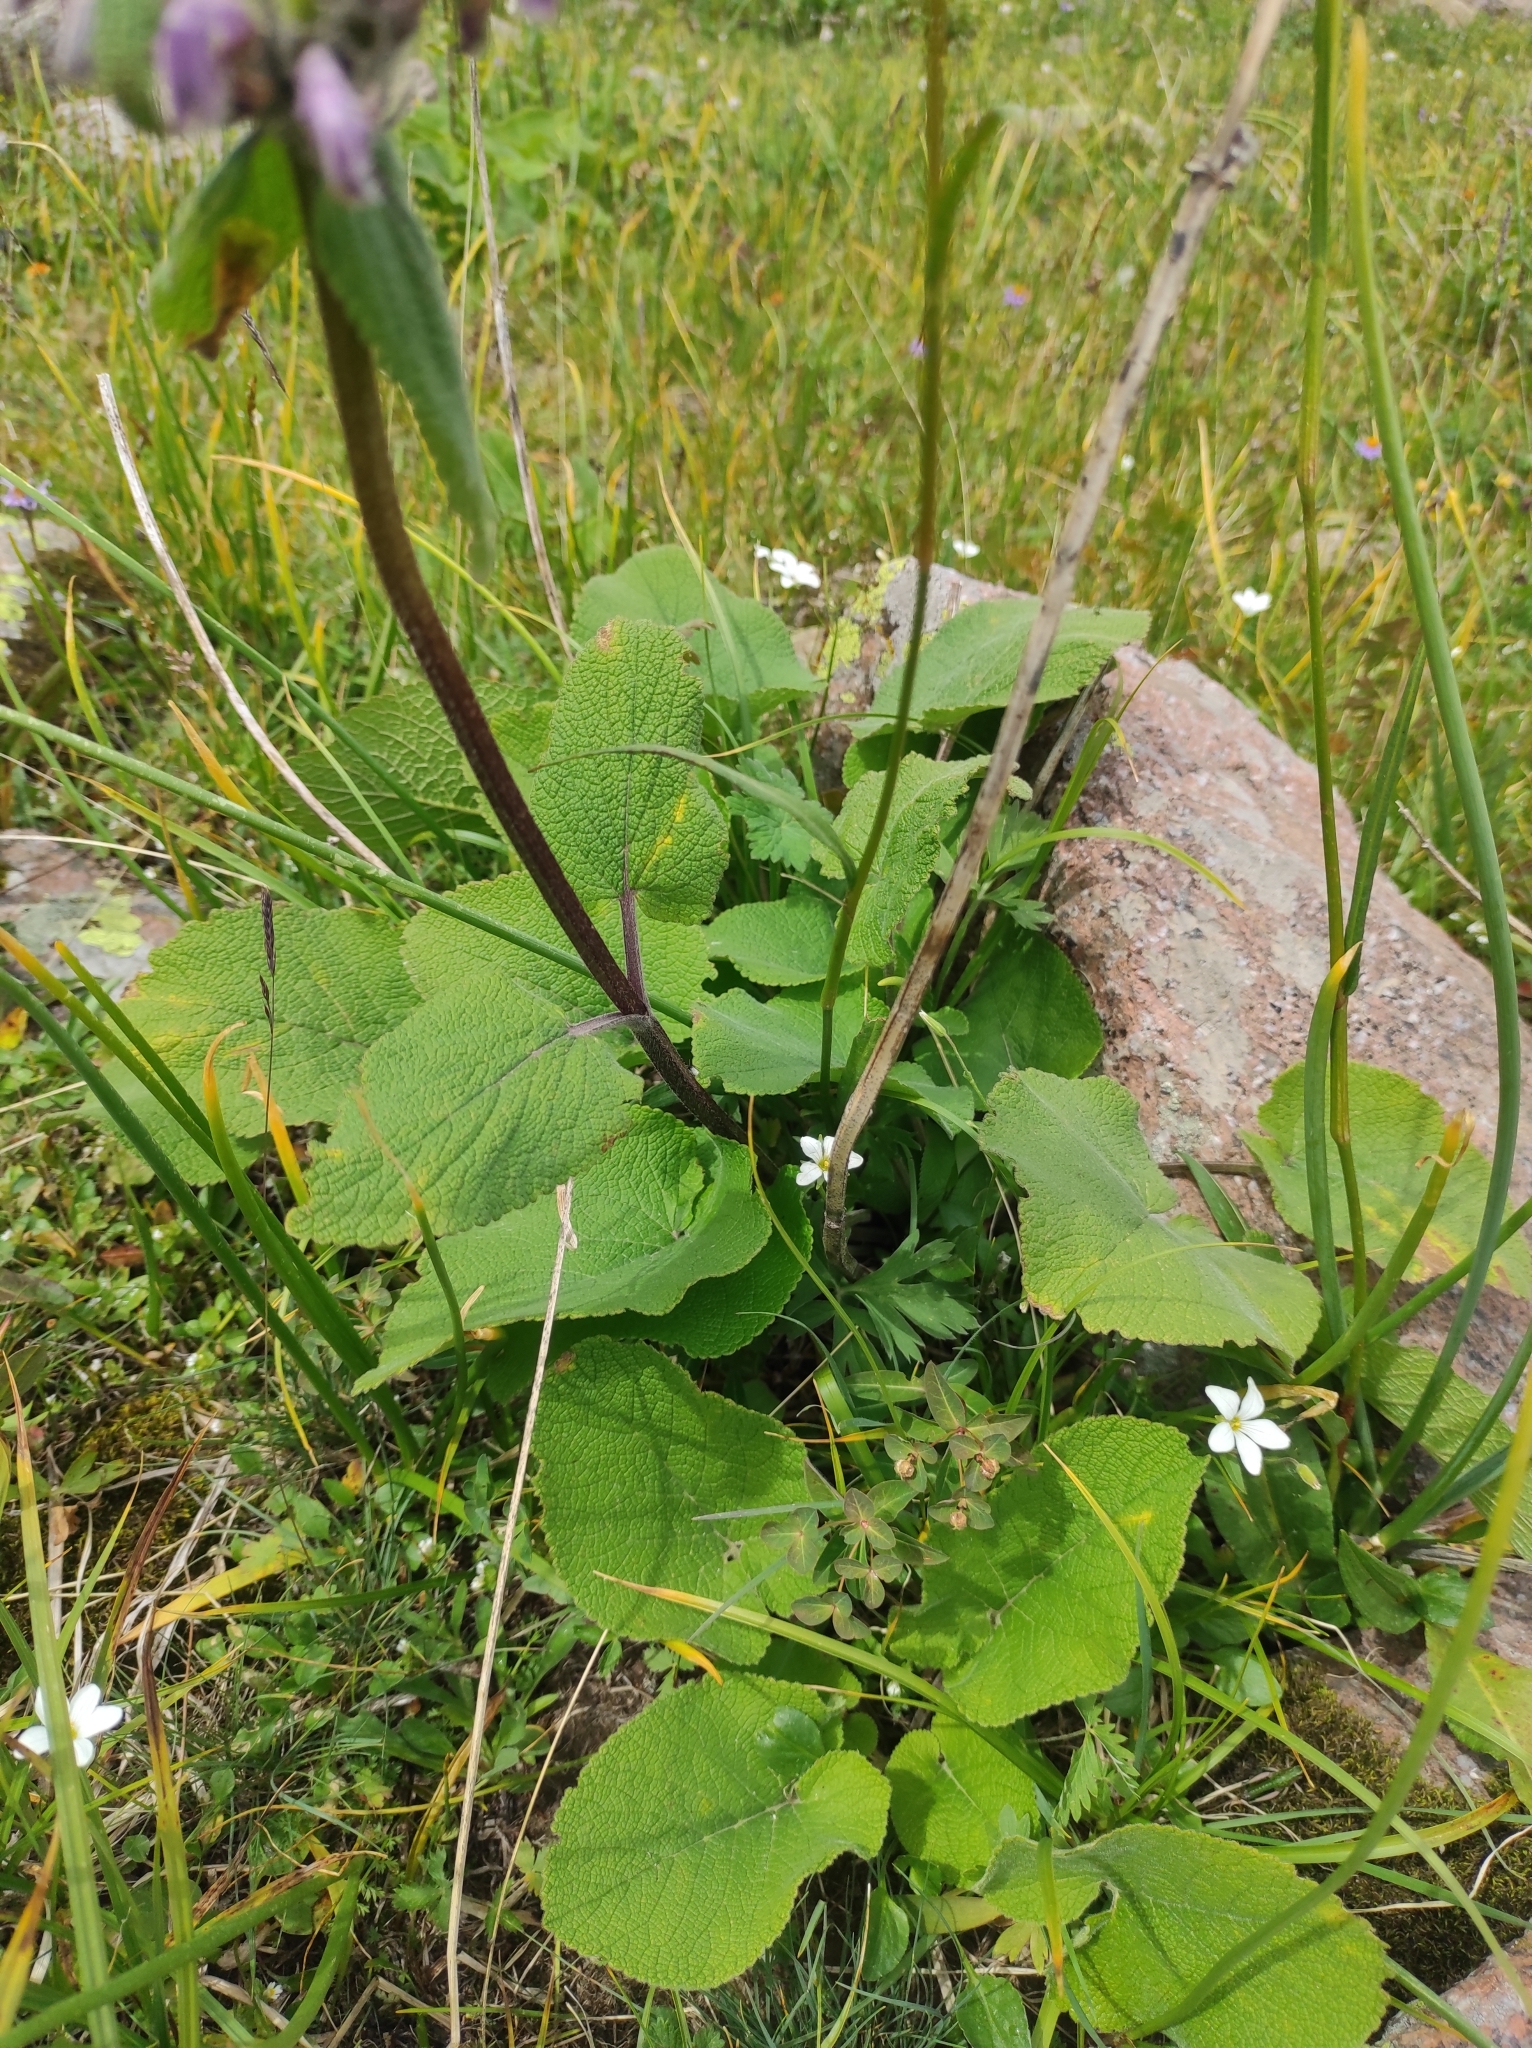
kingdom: Plantae
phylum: Tracheophyta
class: Magnoliopsida
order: Lamiales
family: Lamiaceae
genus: Phlomoides
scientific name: Phlomoides oreophila
